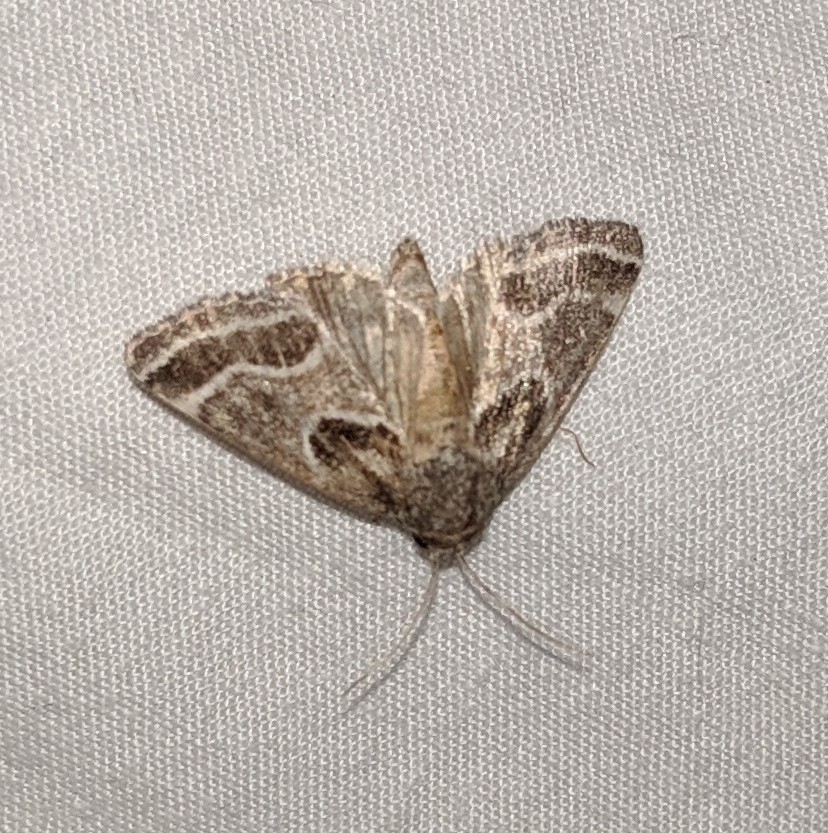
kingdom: Animalia
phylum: Arthropoda
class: Insecta
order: Lepidoptera
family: Noctuidae
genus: Schinia
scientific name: Schinia rivulosa
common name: Scarce meal-moth
